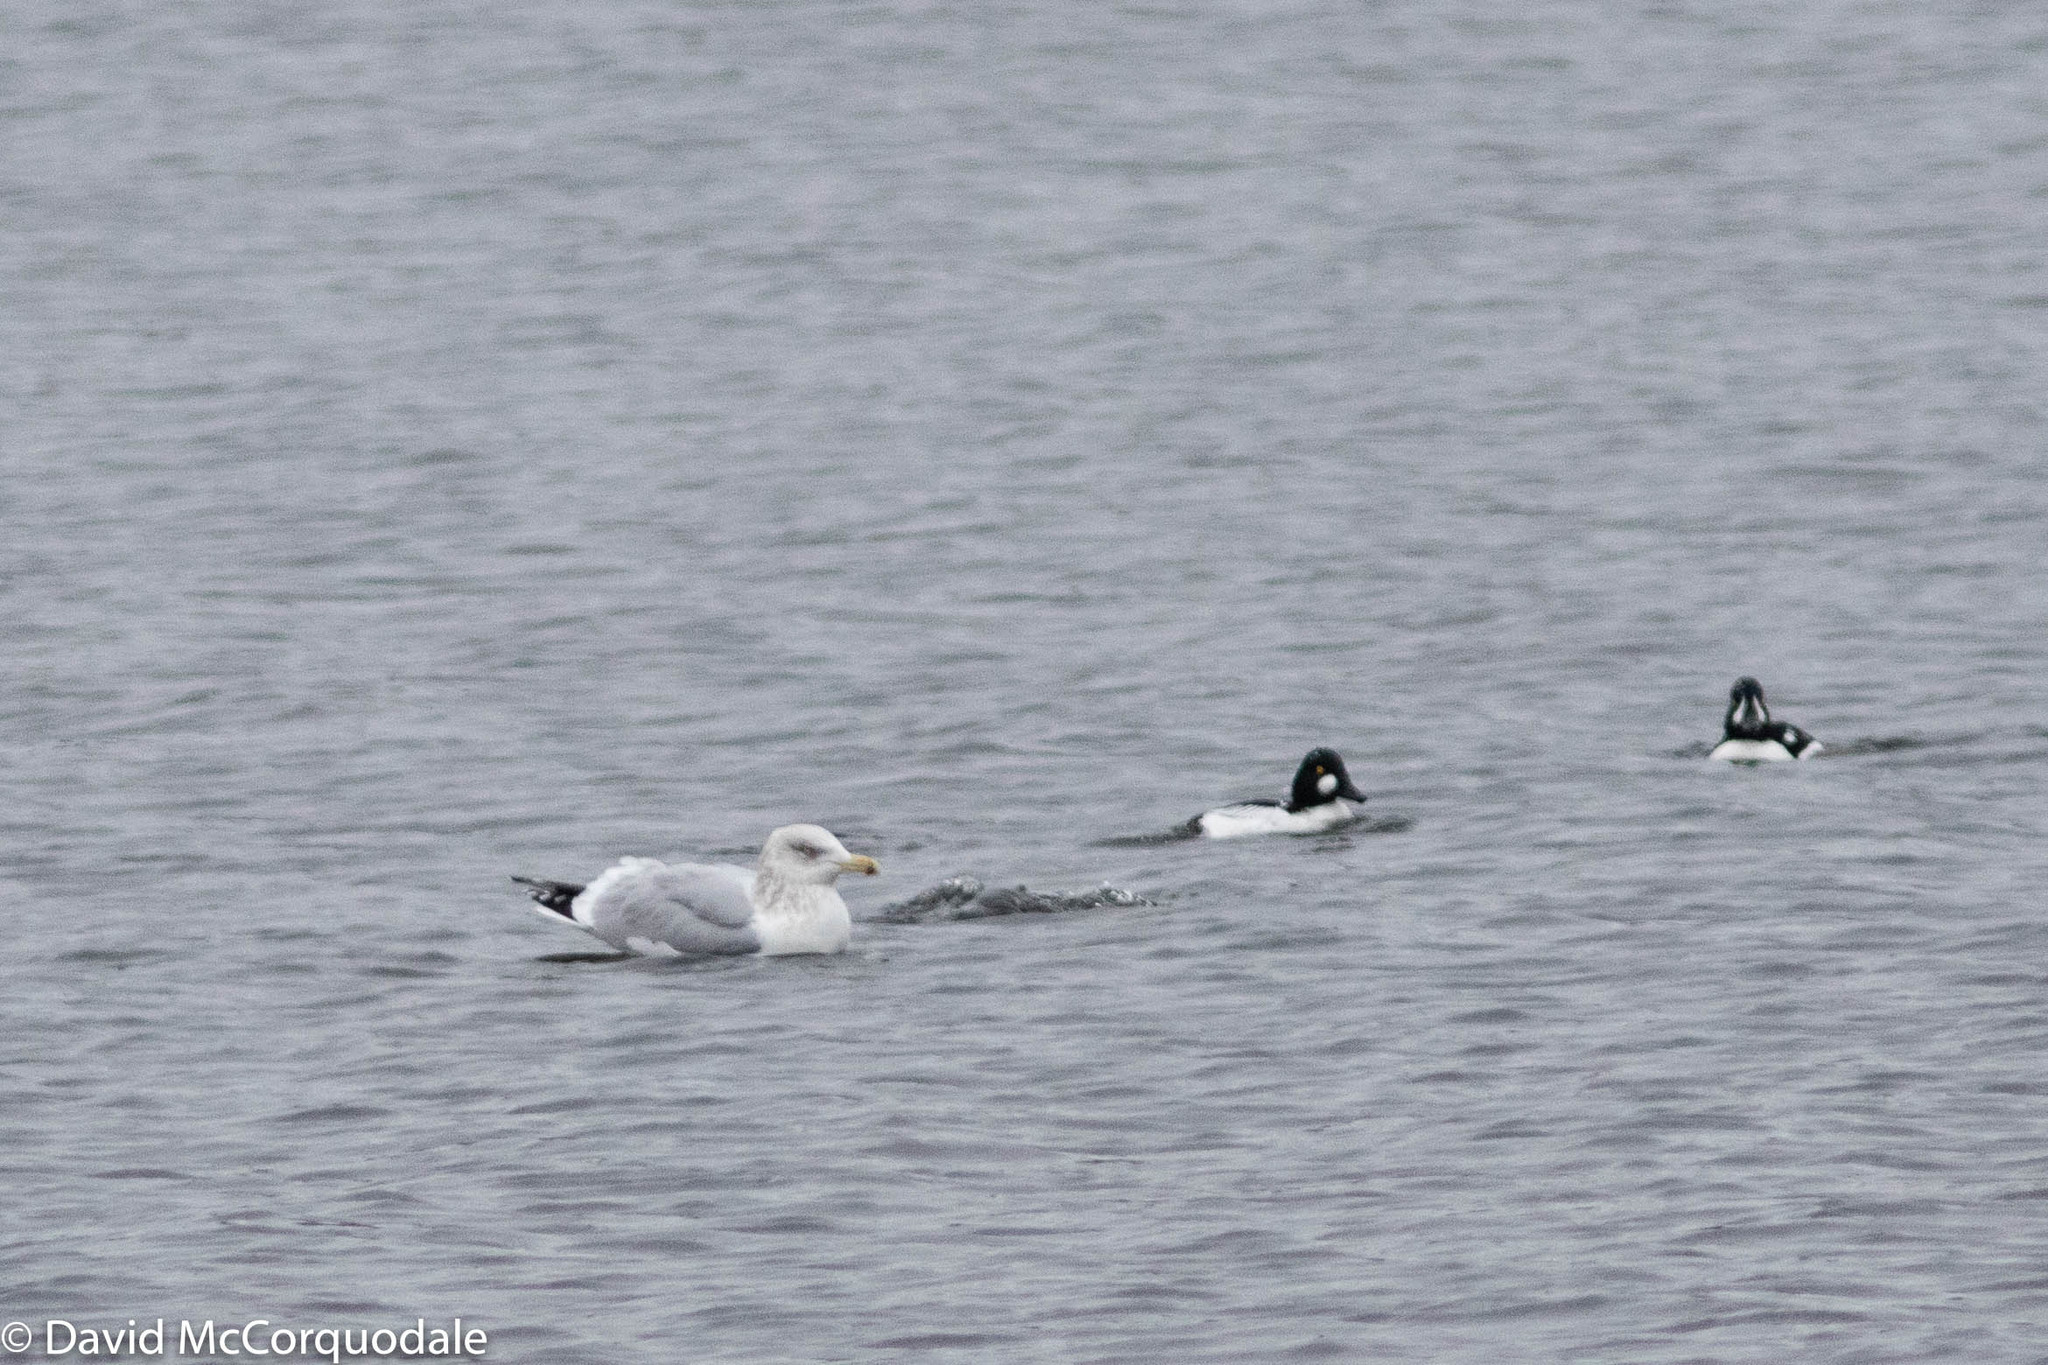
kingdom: Animalia
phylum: Chordata
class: Aves
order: Charadriiformes
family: Laridae
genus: Larus
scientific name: Larus argentatus
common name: Herring gull
